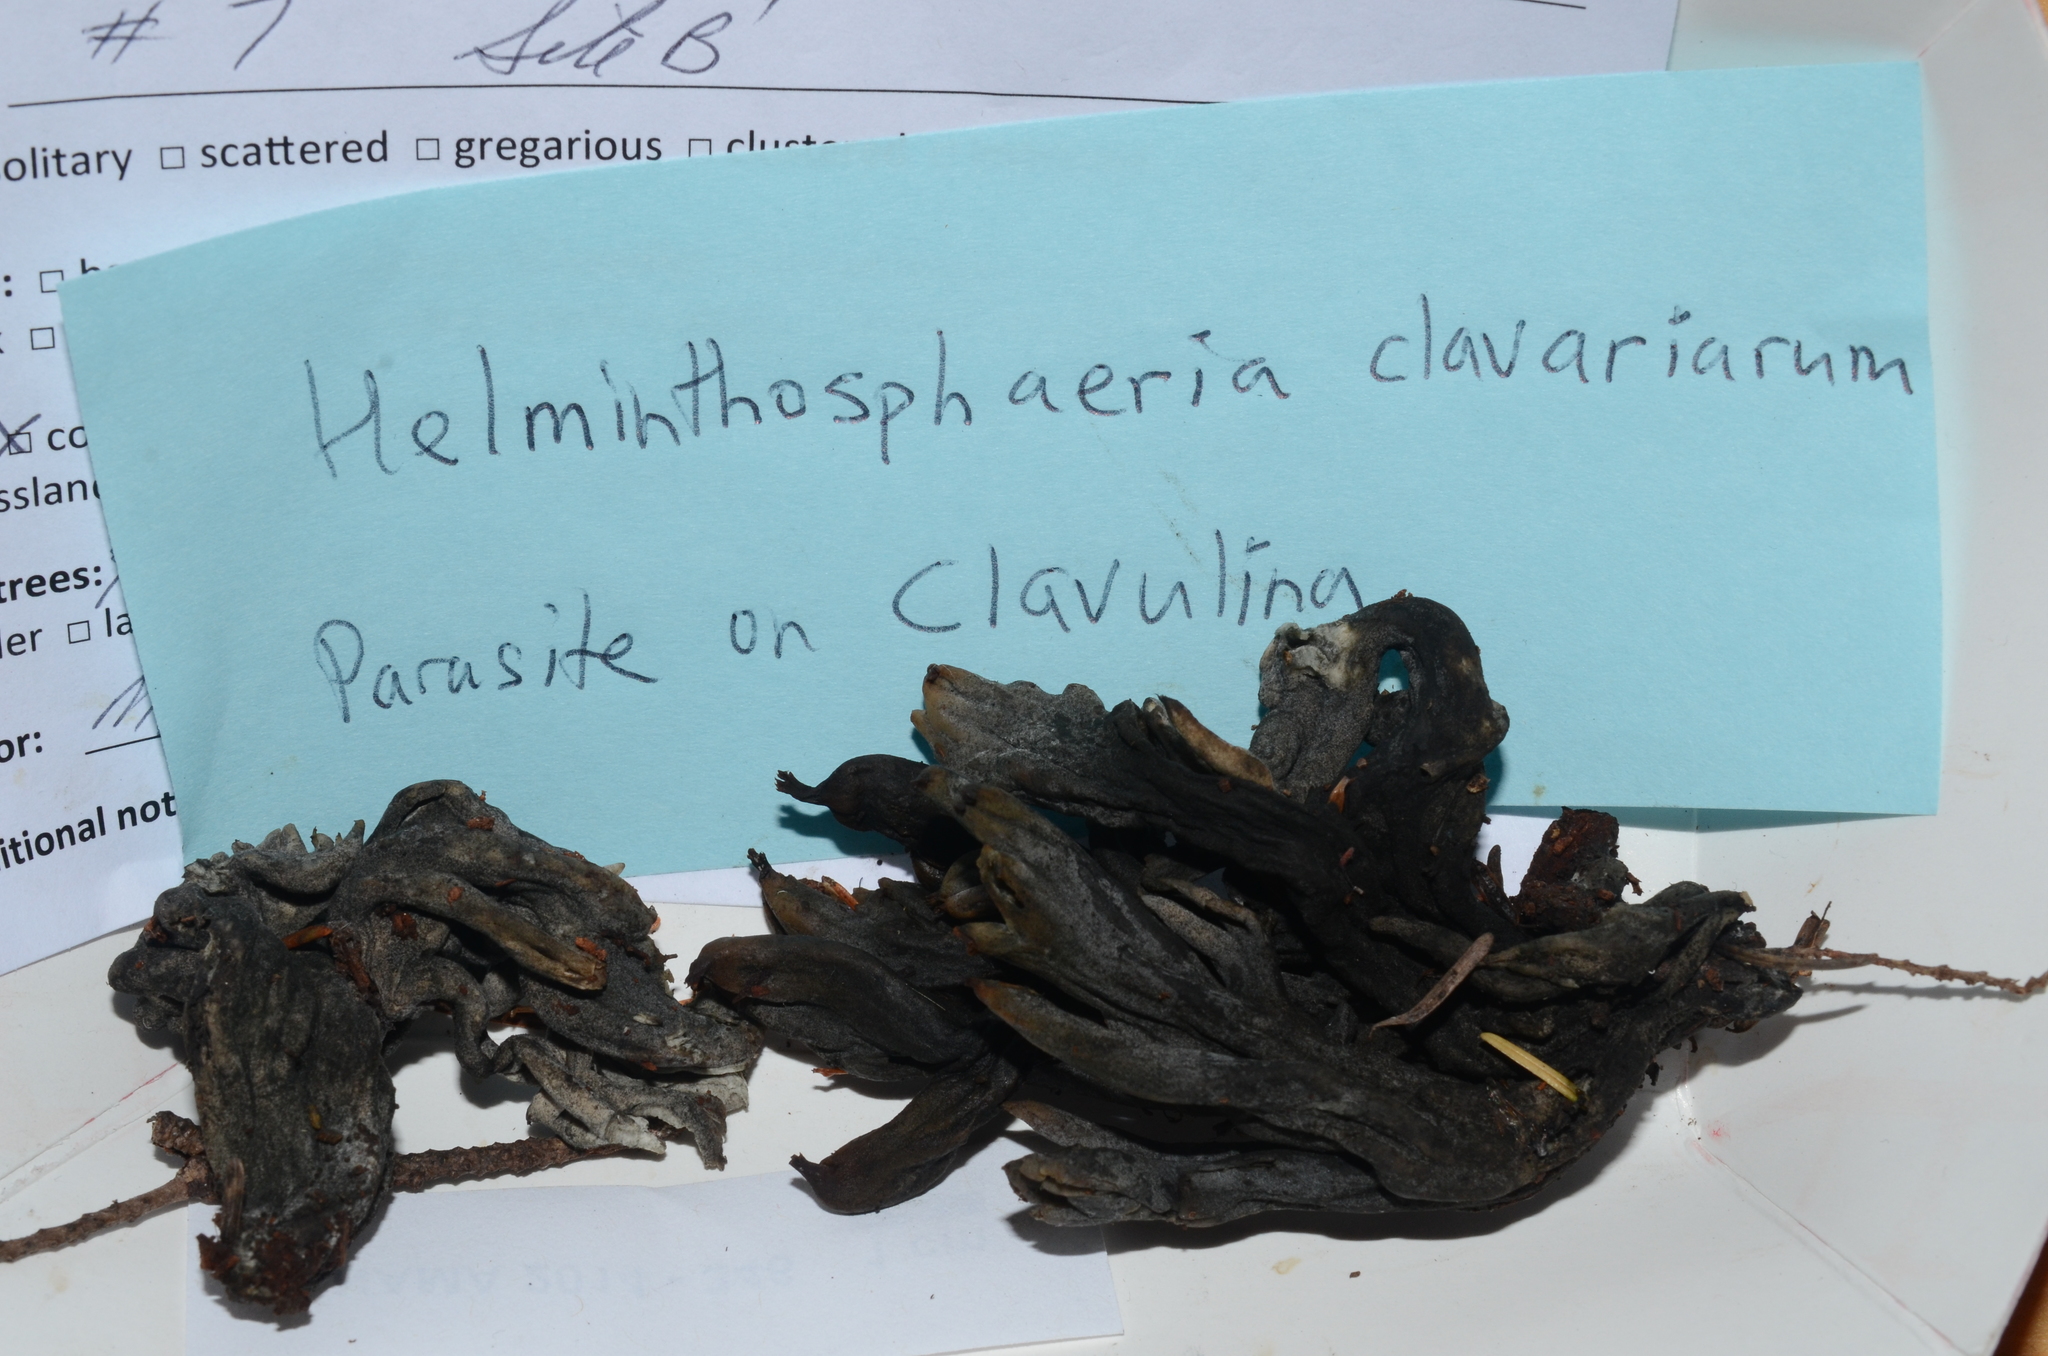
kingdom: Fungi
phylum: Ascomycota
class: Sordariomycetes
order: Sordariales
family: Helminthosphaeriaceae
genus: Helminthosphaeria
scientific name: Helminthosphaeria clavariarum
